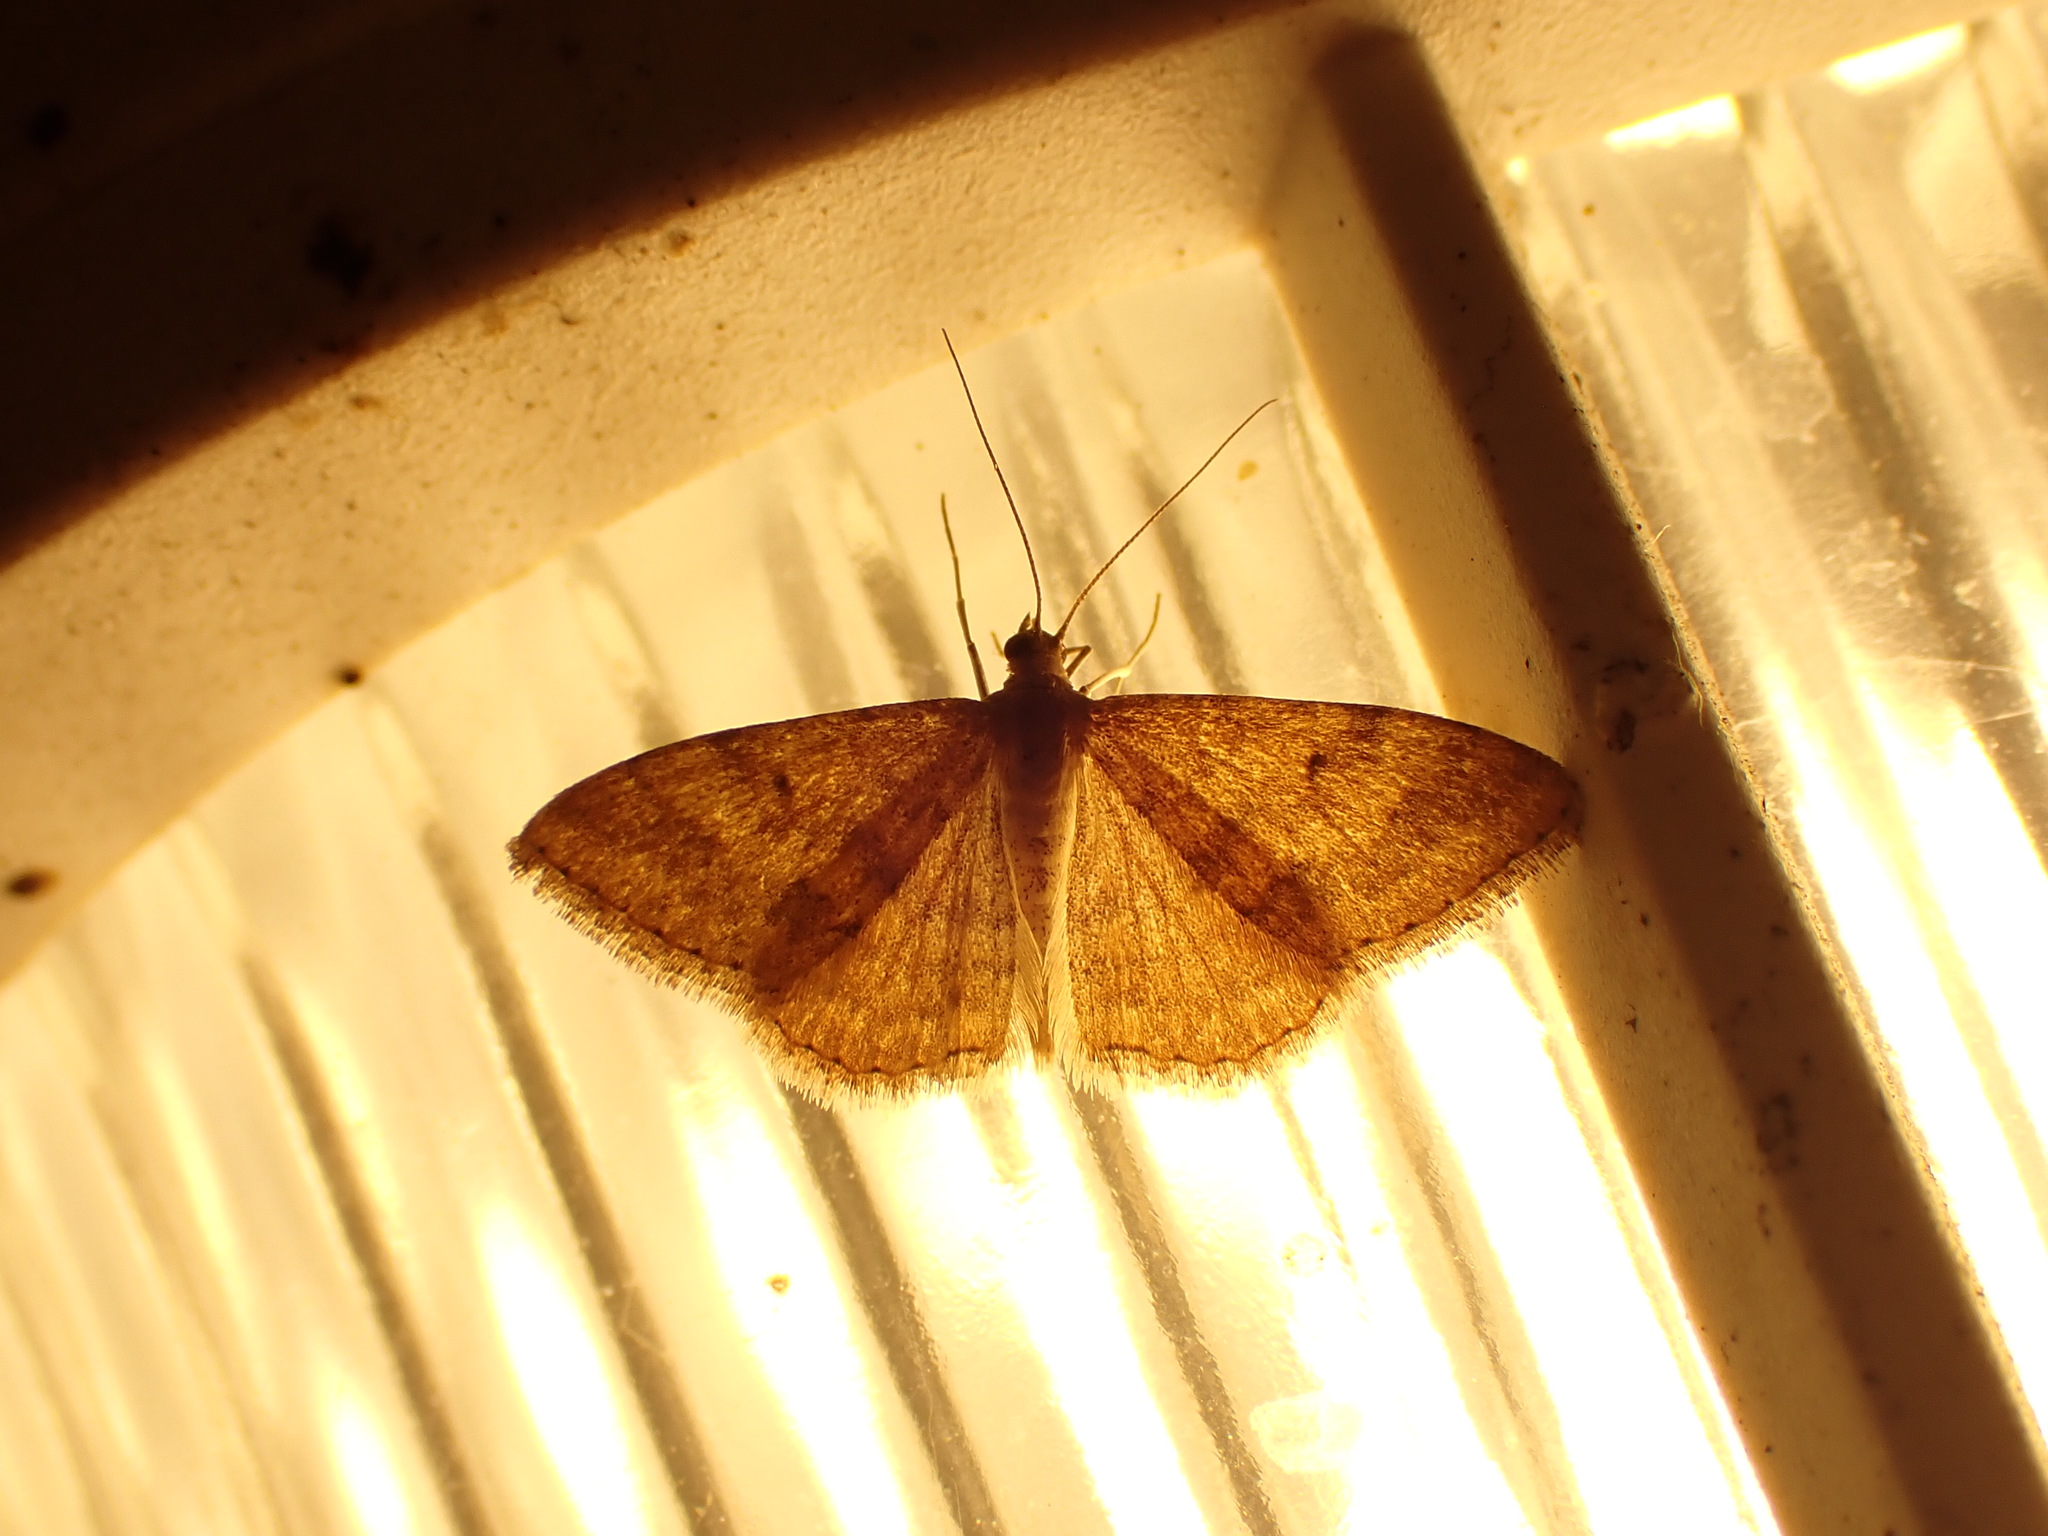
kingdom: Animalia
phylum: Arthropoda
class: Insecta
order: Lepidoptera
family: Geometridae
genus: Scopula
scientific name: Scopula rubraria
